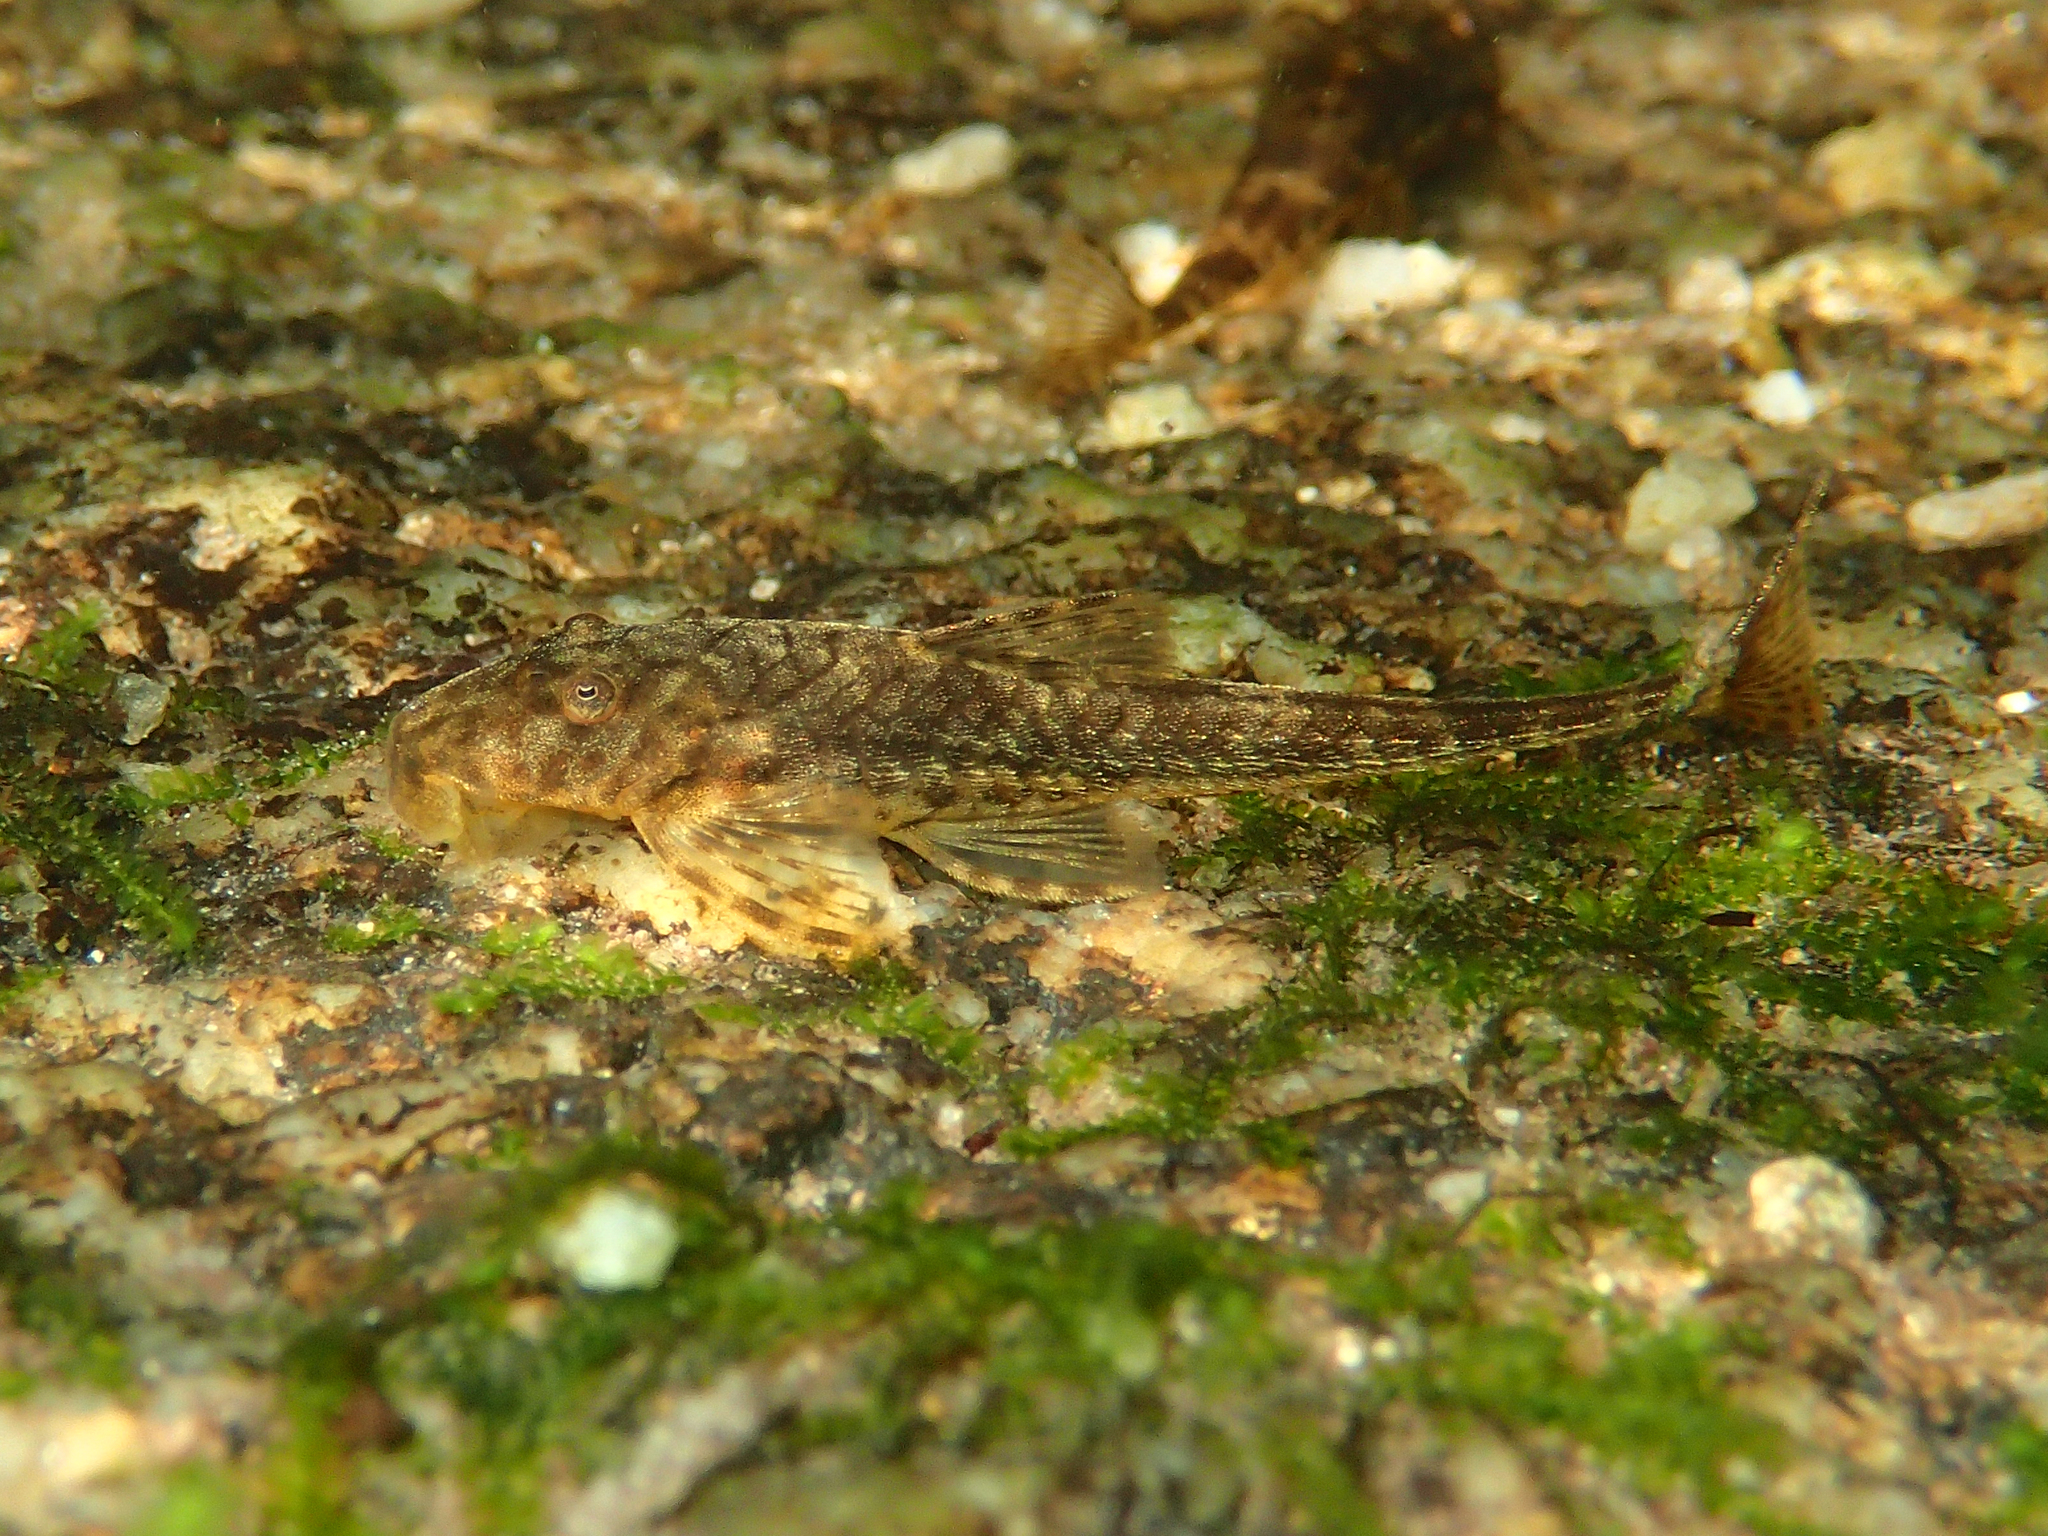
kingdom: Animalia
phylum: Chordata
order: Siluriformes
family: Loricariidae
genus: Harttiella
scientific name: Harttiella longicauda
